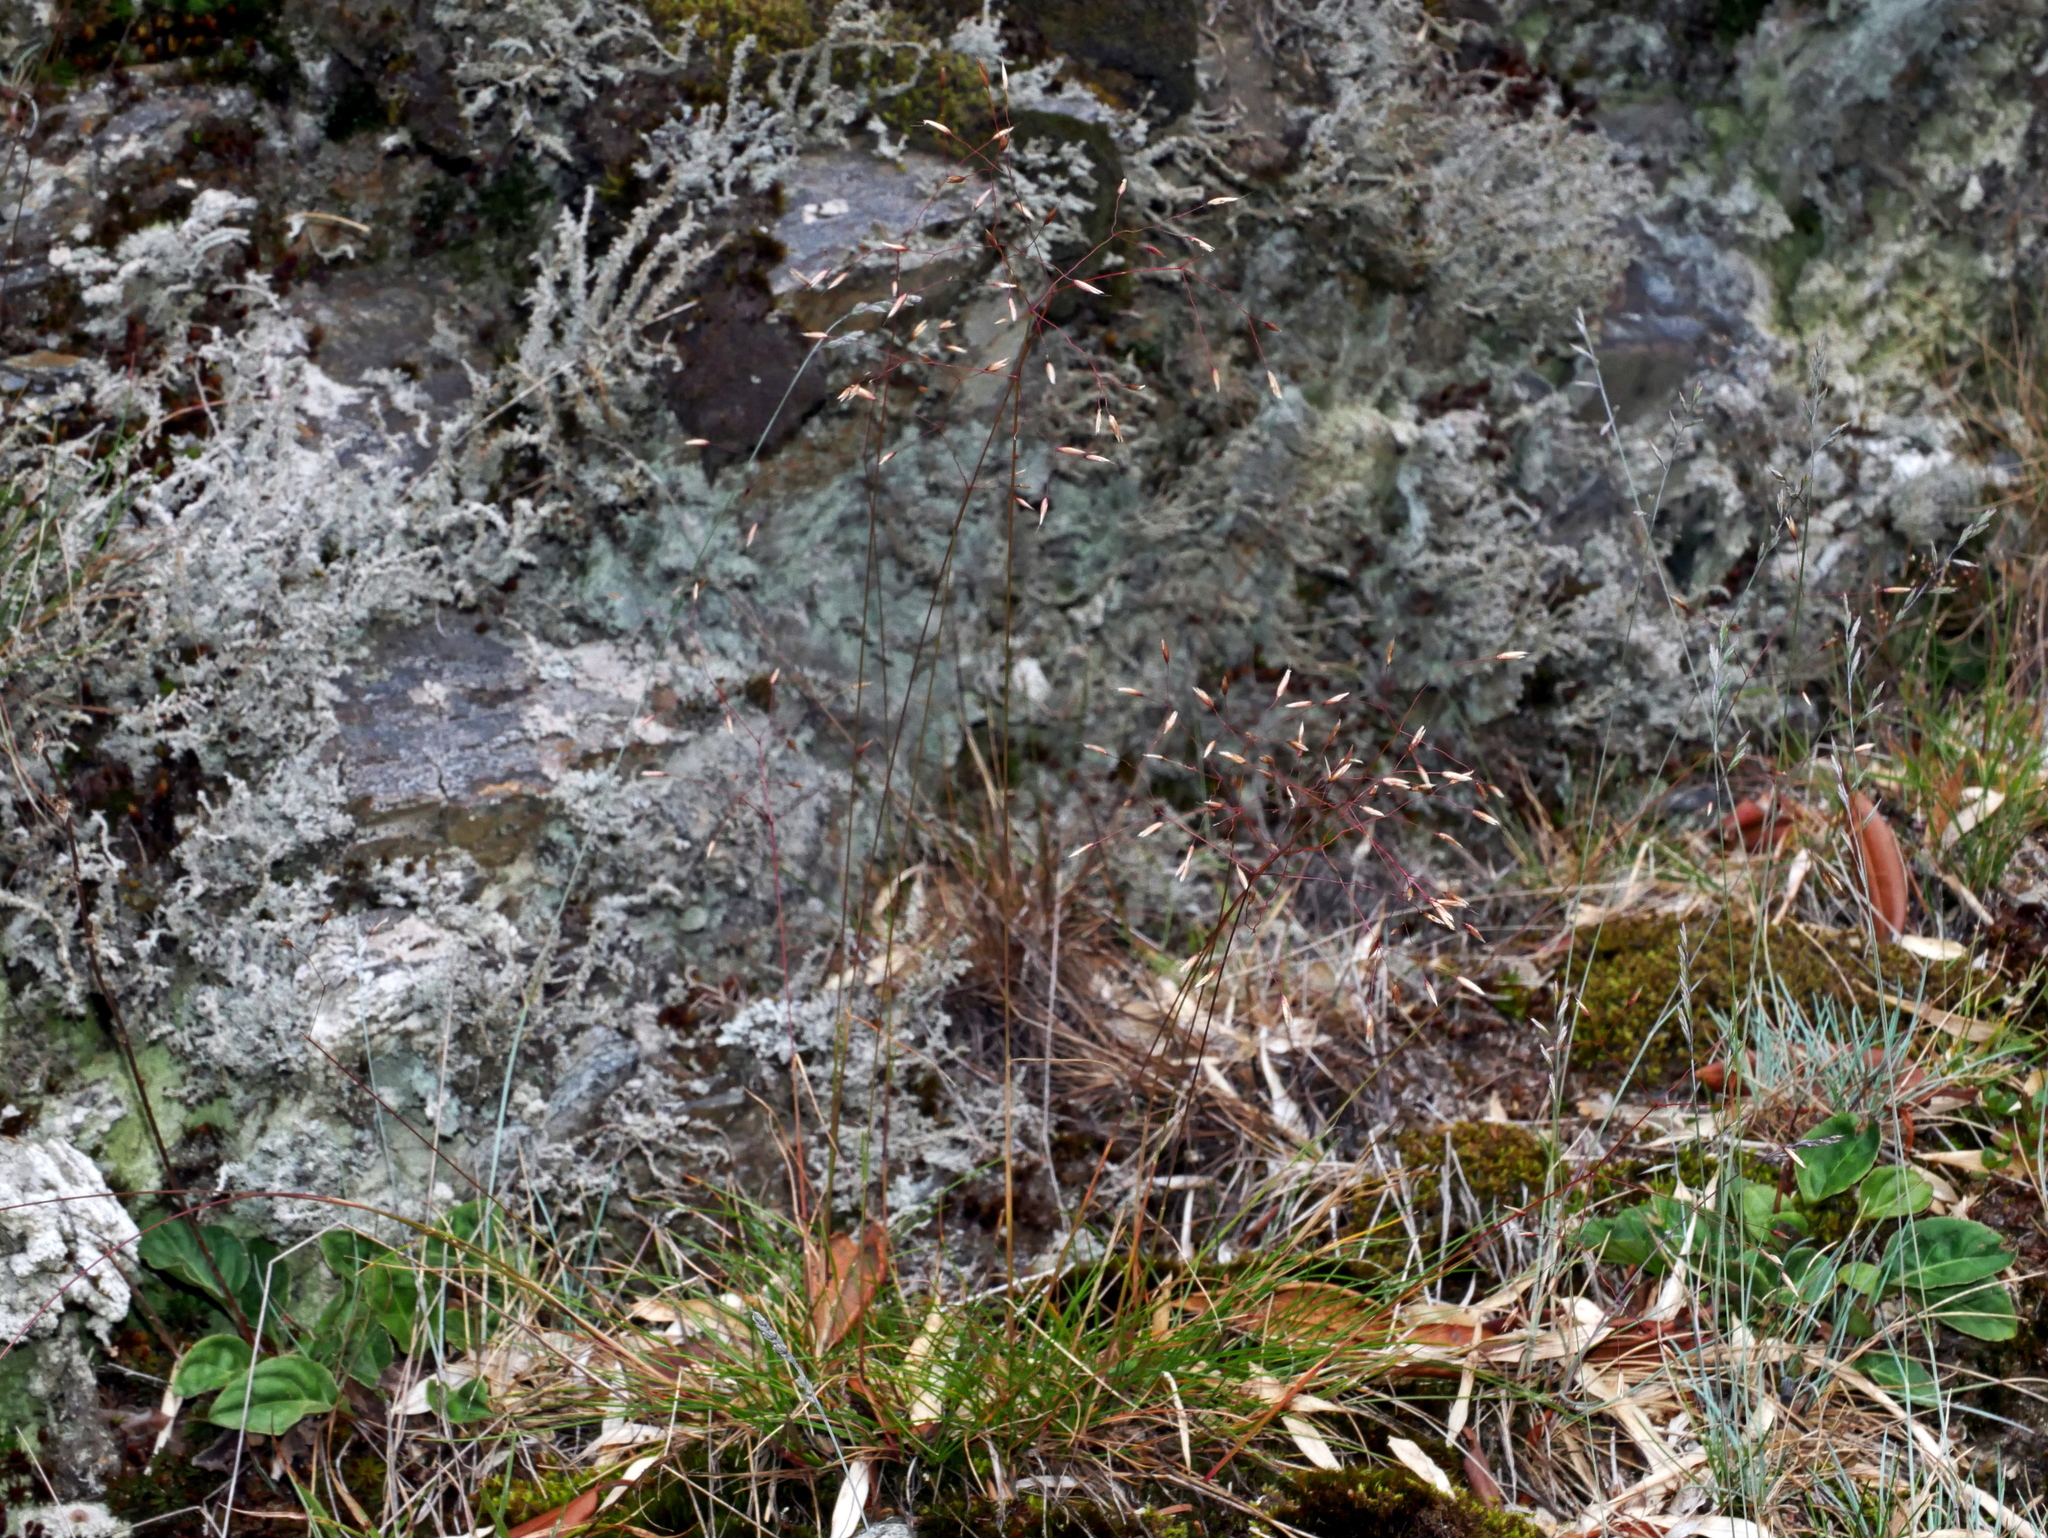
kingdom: Plantae
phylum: Tracheophyta
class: Liliopsida
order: Poales
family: Poaceae
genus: Avenella
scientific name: Avenella flexuosa
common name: Wavy hairgrass
